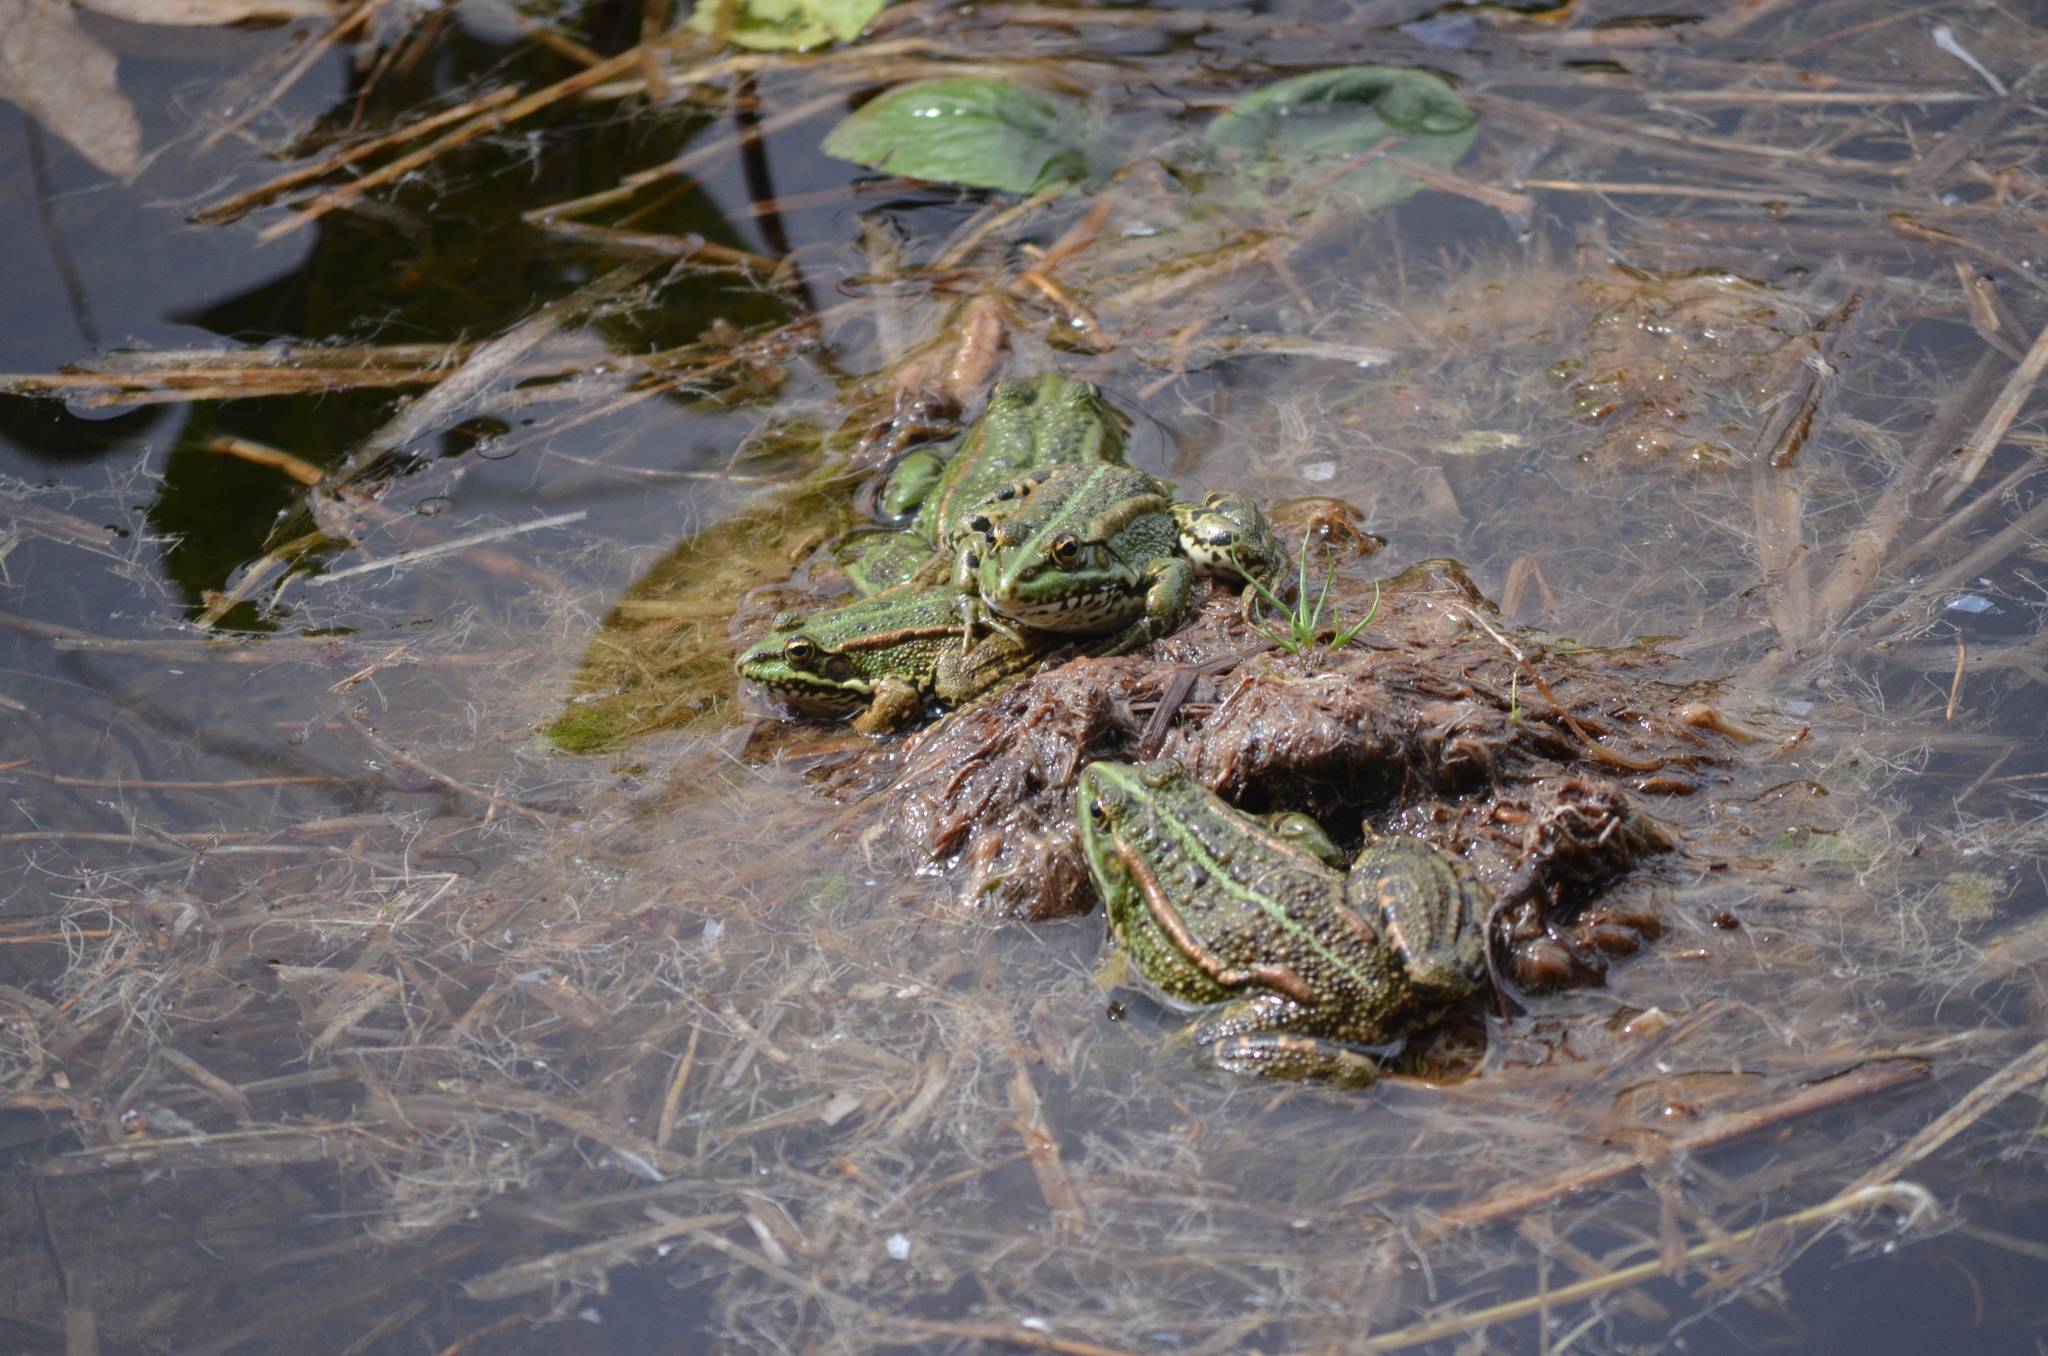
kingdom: Animalia
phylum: Chordata
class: Amphibia
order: Anura
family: Ranidae
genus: Pelophylax
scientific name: Pelophylax perezi
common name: Perez's frog
